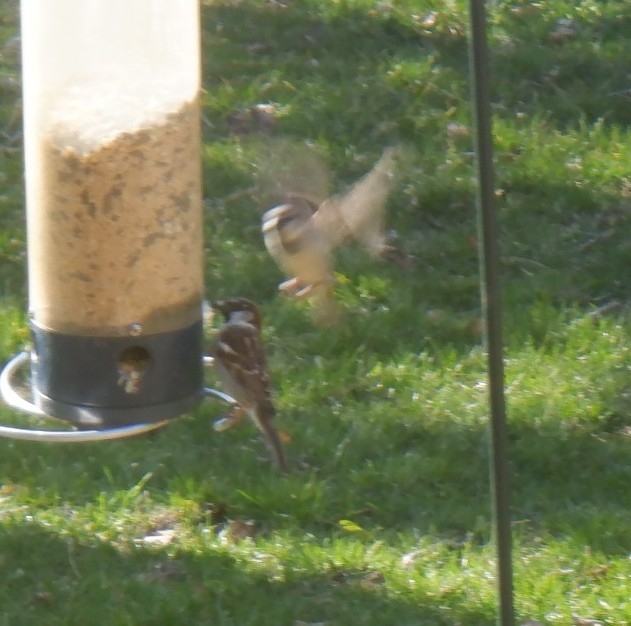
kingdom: Animalia
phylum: Chordata
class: Aves
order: Passeriformes
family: Passeridae
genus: Passer
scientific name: Passer domesticus
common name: House sparrow
